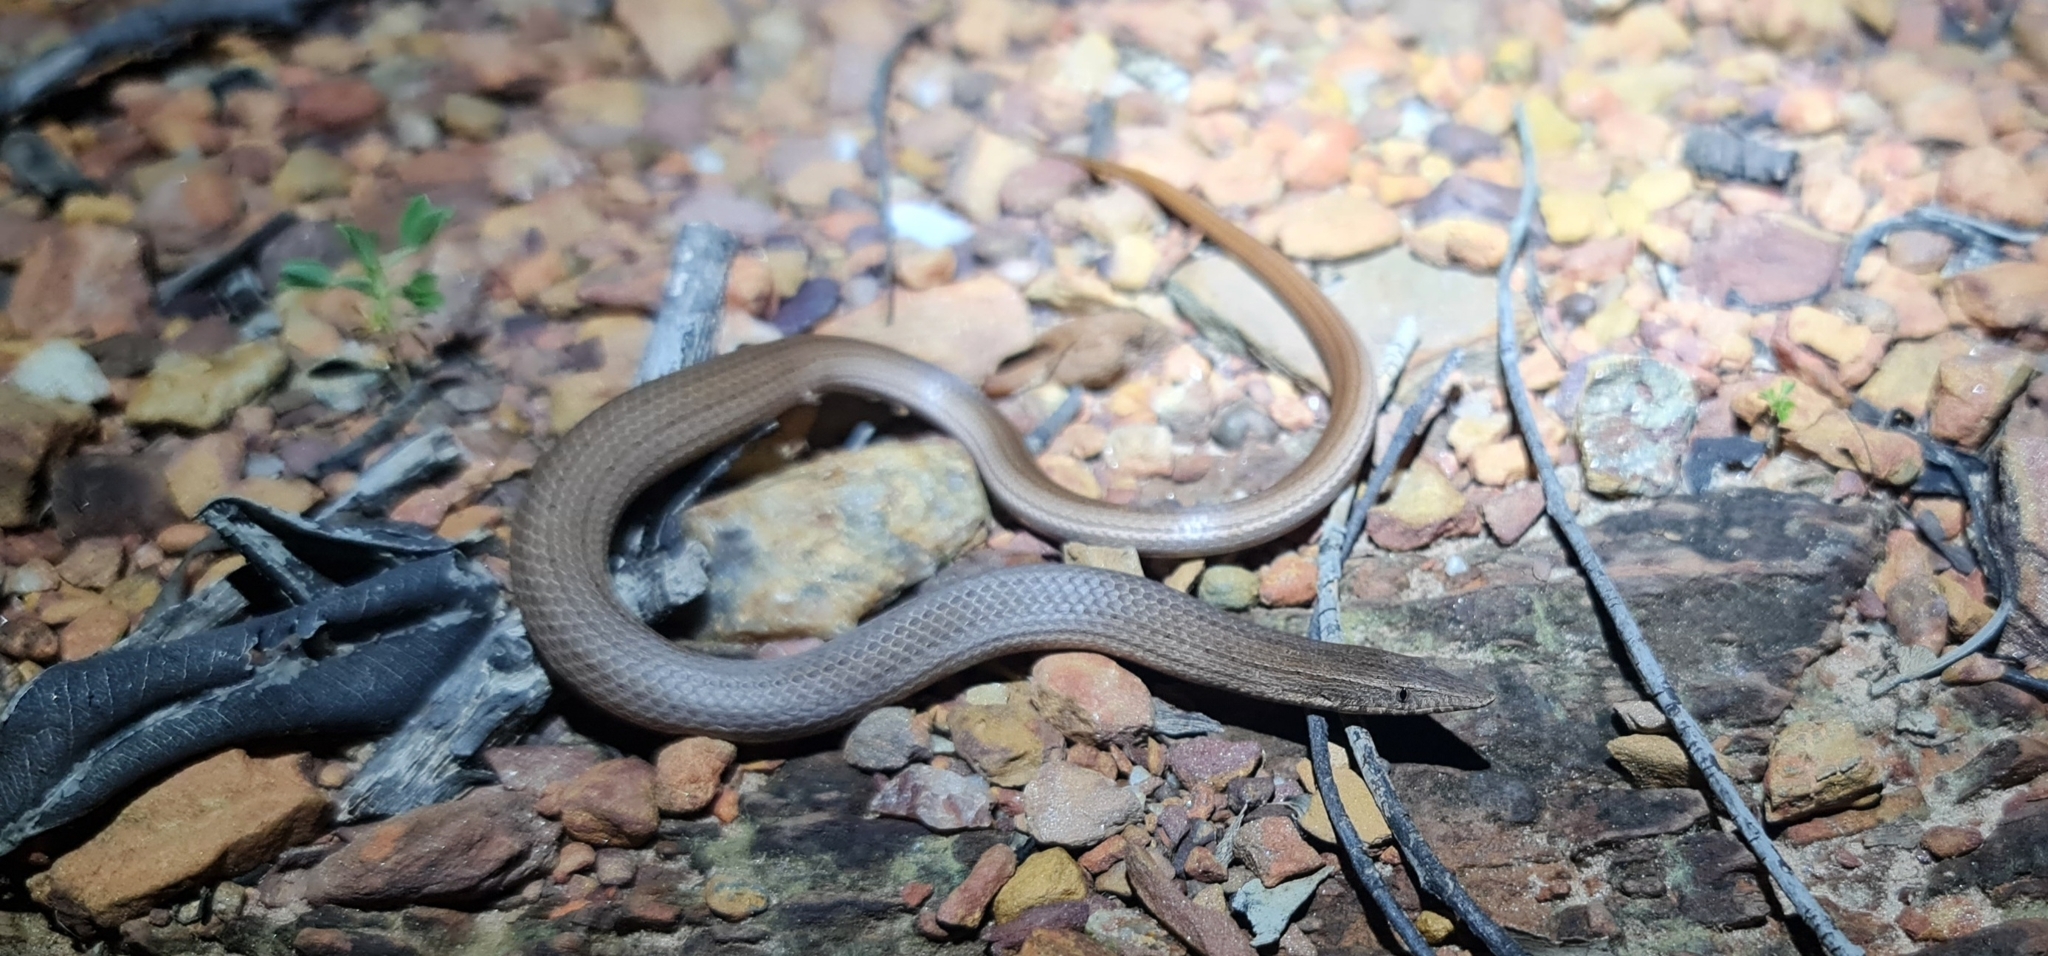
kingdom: Animalia
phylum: Chordata
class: Squamata
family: Pygopodidae
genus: Lialis
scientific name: Lialis burtonis
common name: Burton's legless lizard
